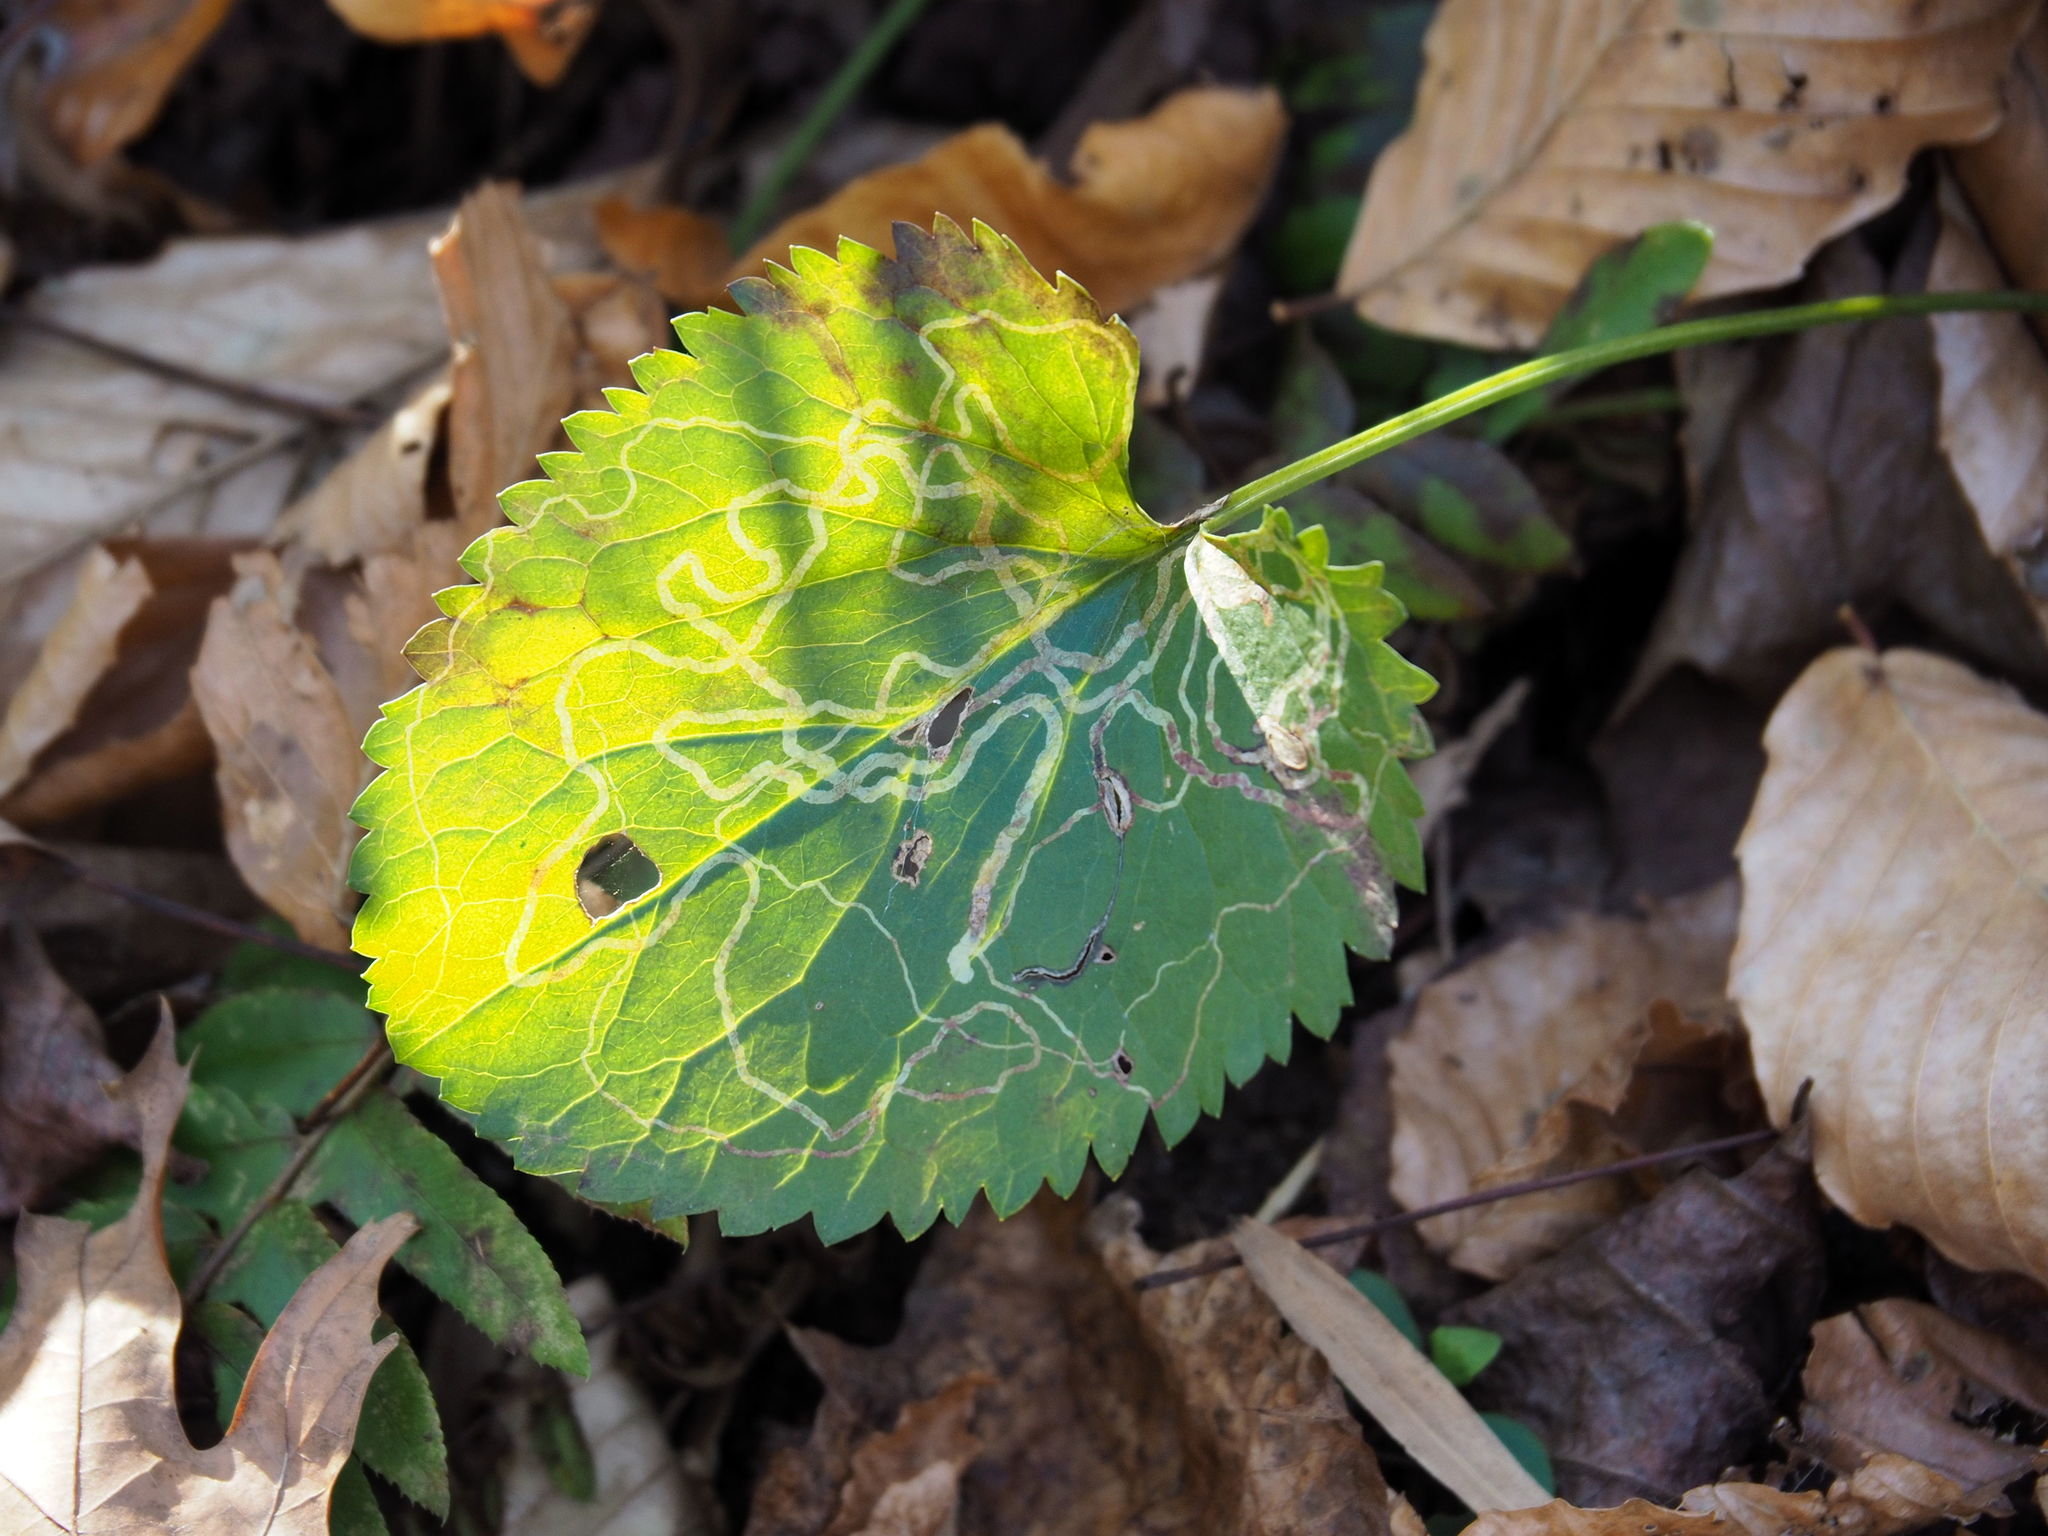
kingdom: Animalia
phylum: Arthropoda
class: Insecta
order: Lepidoptera
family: Gracillariidae
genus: Phyllocnistis
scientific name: Phyllocnistis insignis
